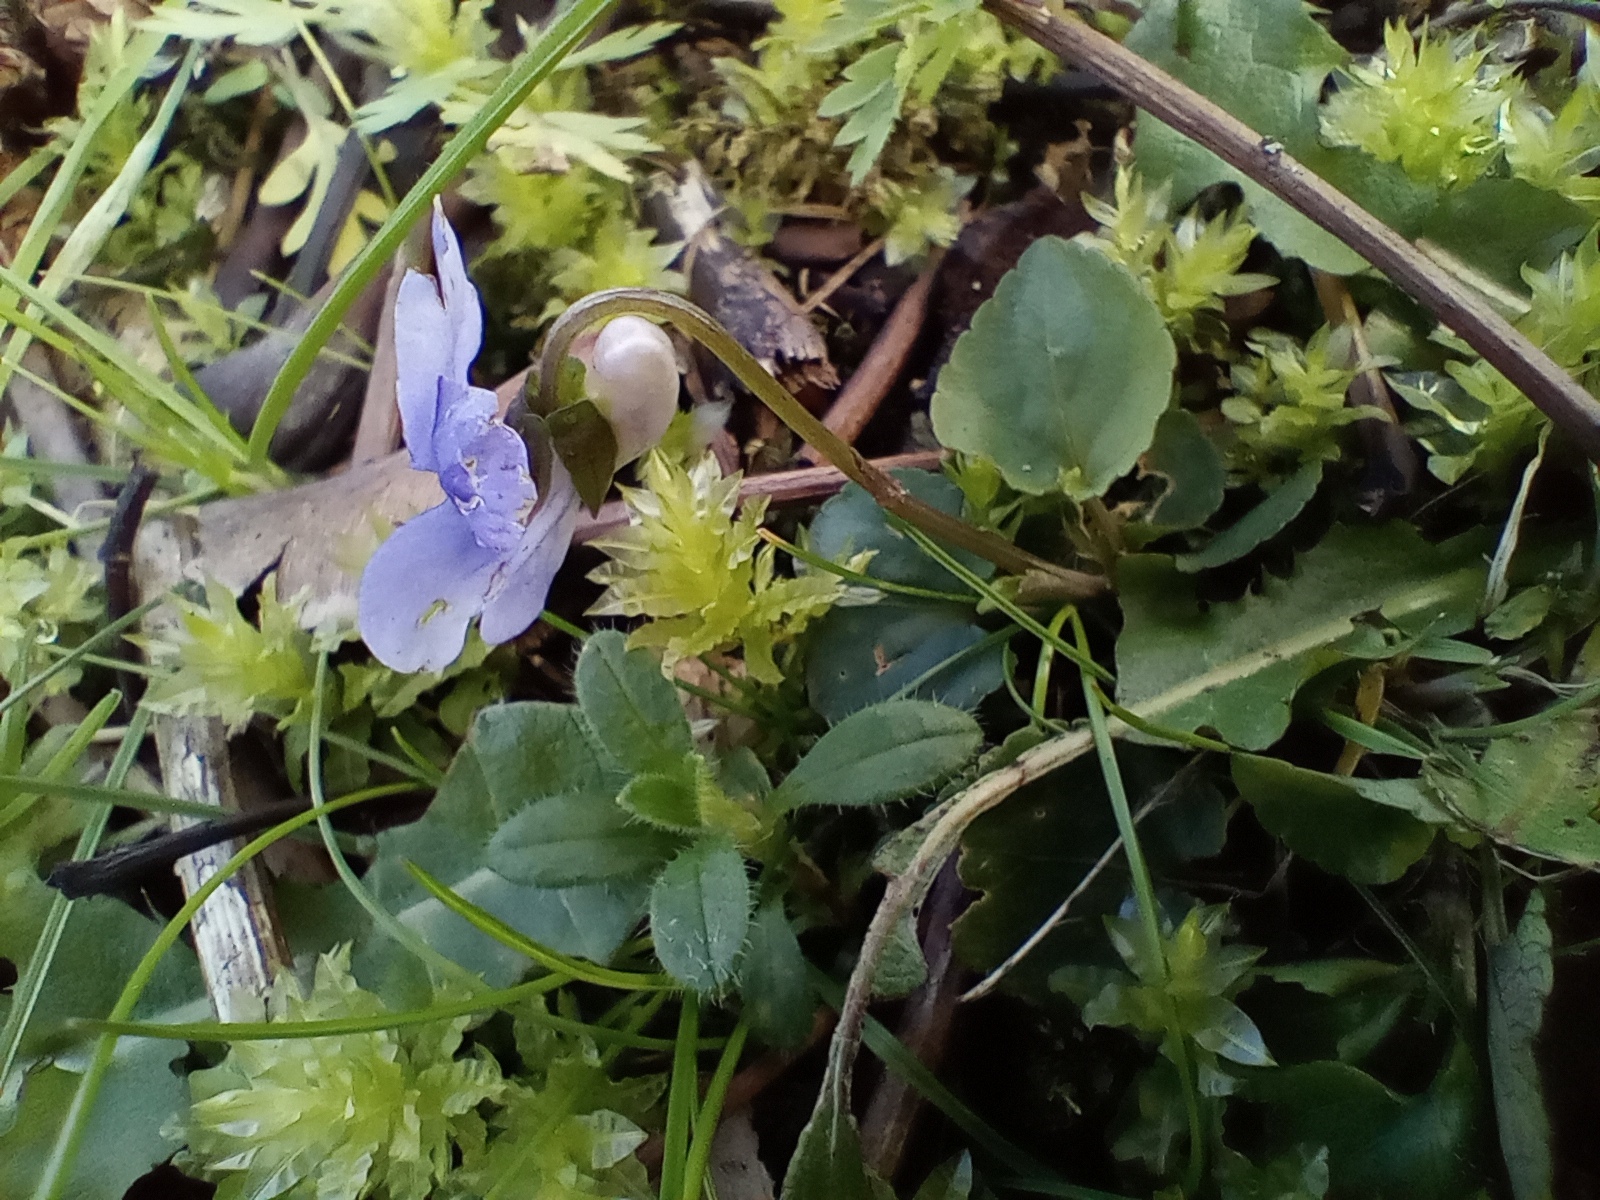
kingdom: Plantae
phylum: Tracheophyta
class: Magnoliopsida
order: Malpighiales
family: Violaceae
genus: Viola
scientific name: Viola riviniana
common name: Common dog-violet
